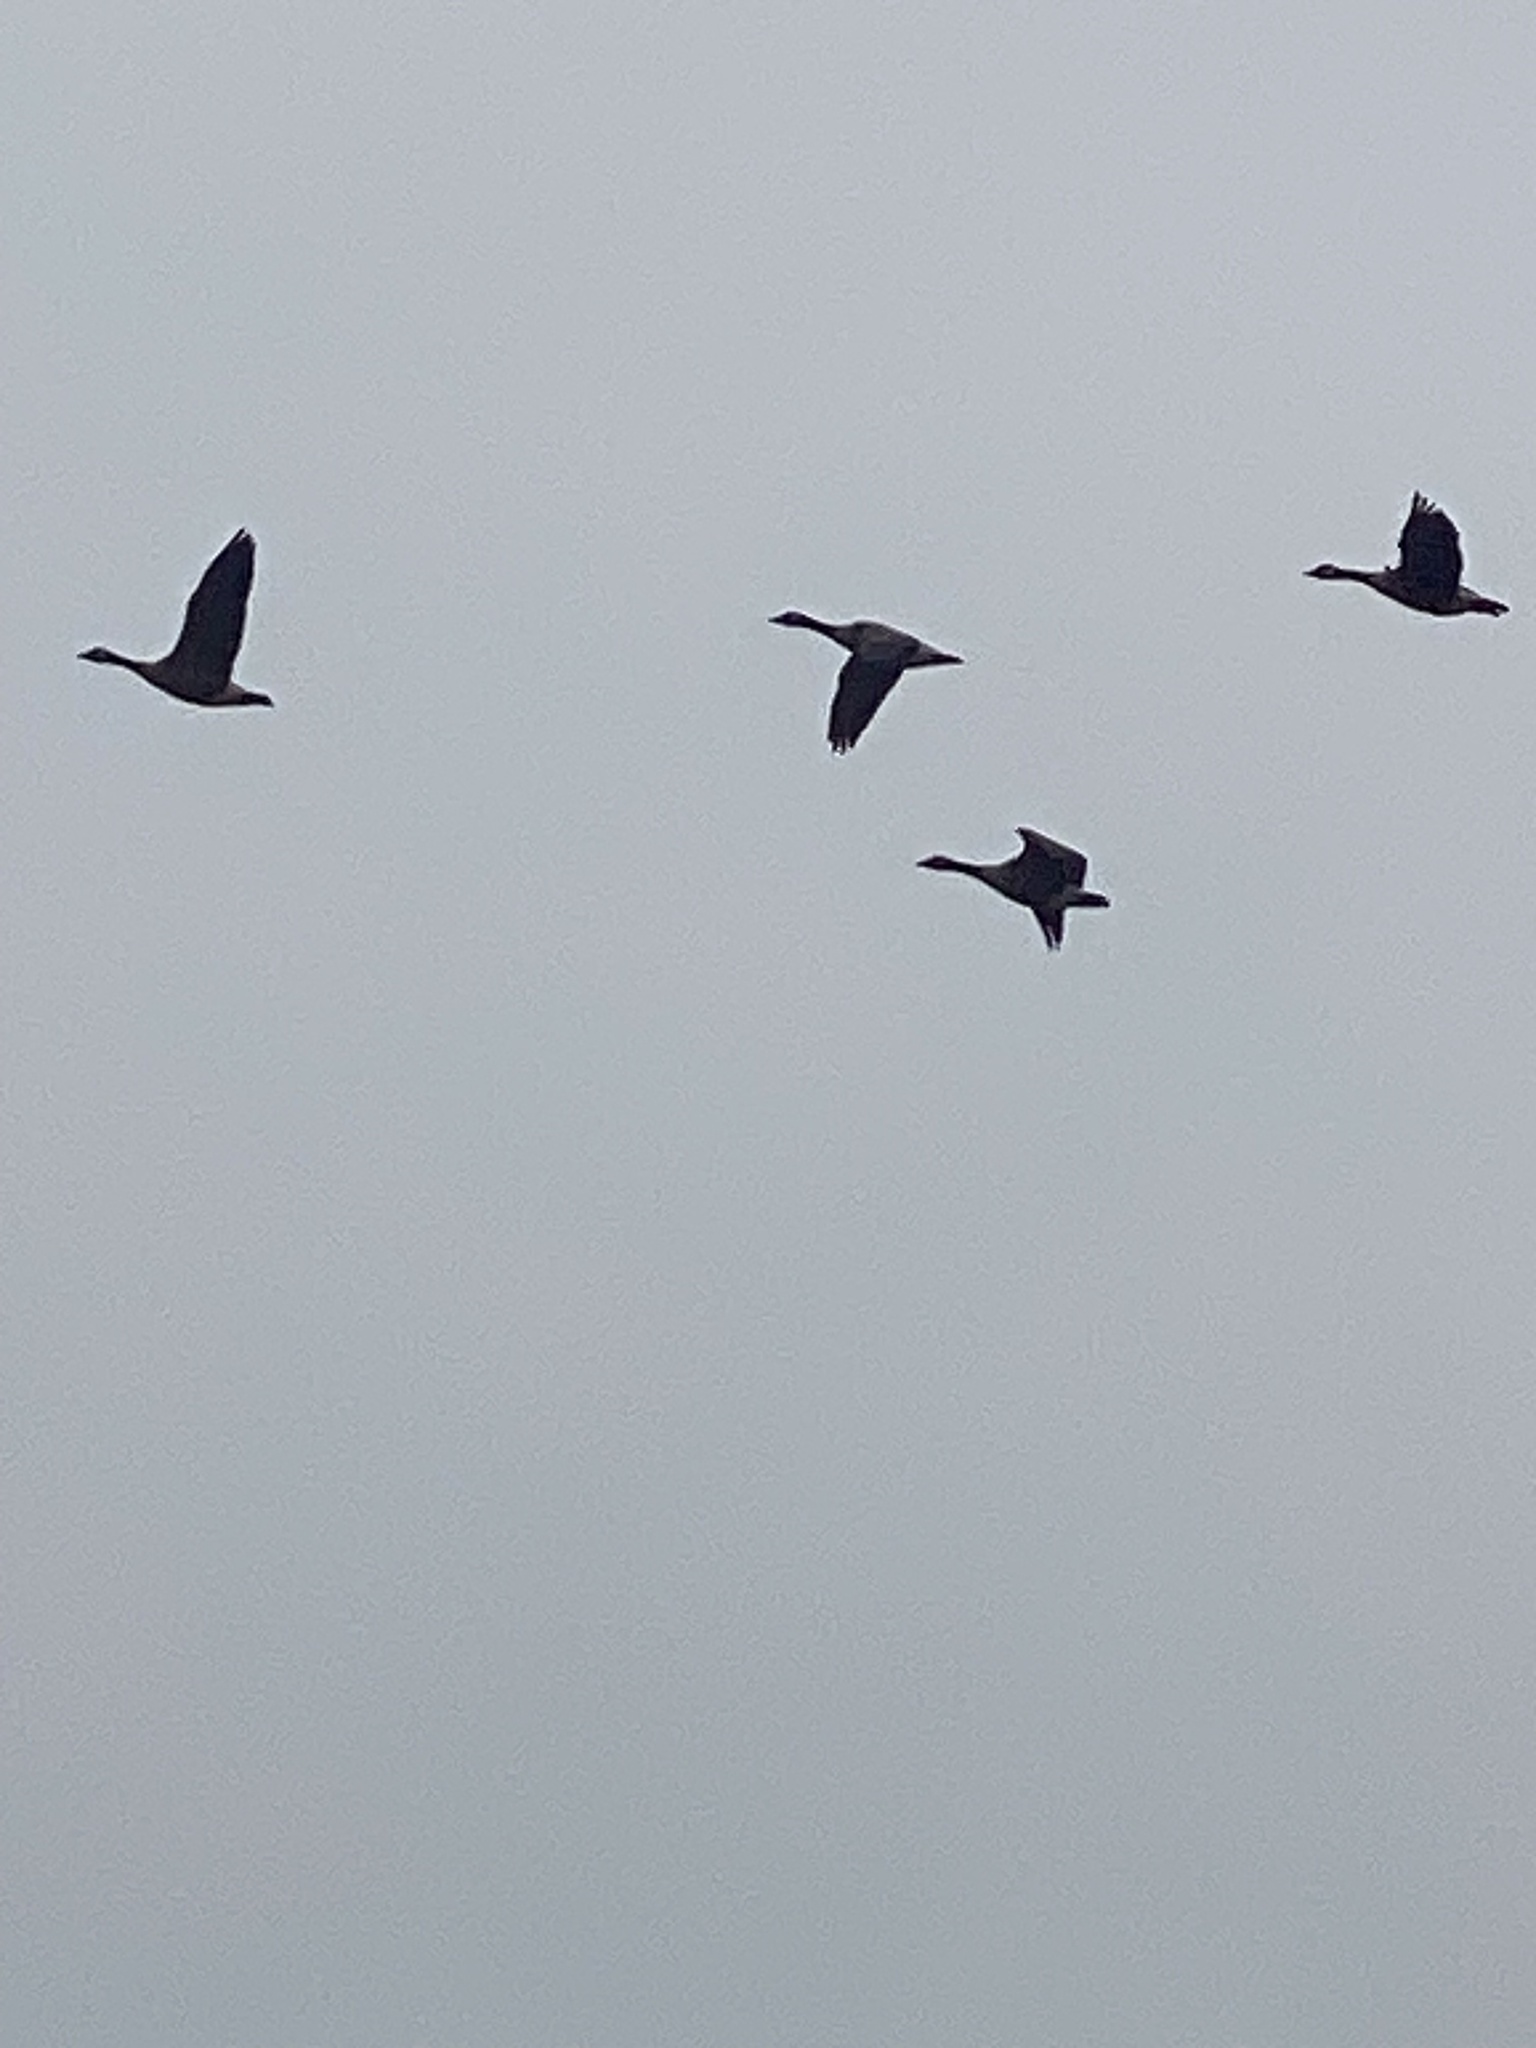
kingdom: Animalia
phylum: Chordata
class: Aves
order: Anseriformes
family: Anatidae
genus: Branta
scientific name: Branta canadensis
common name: Canada goose
